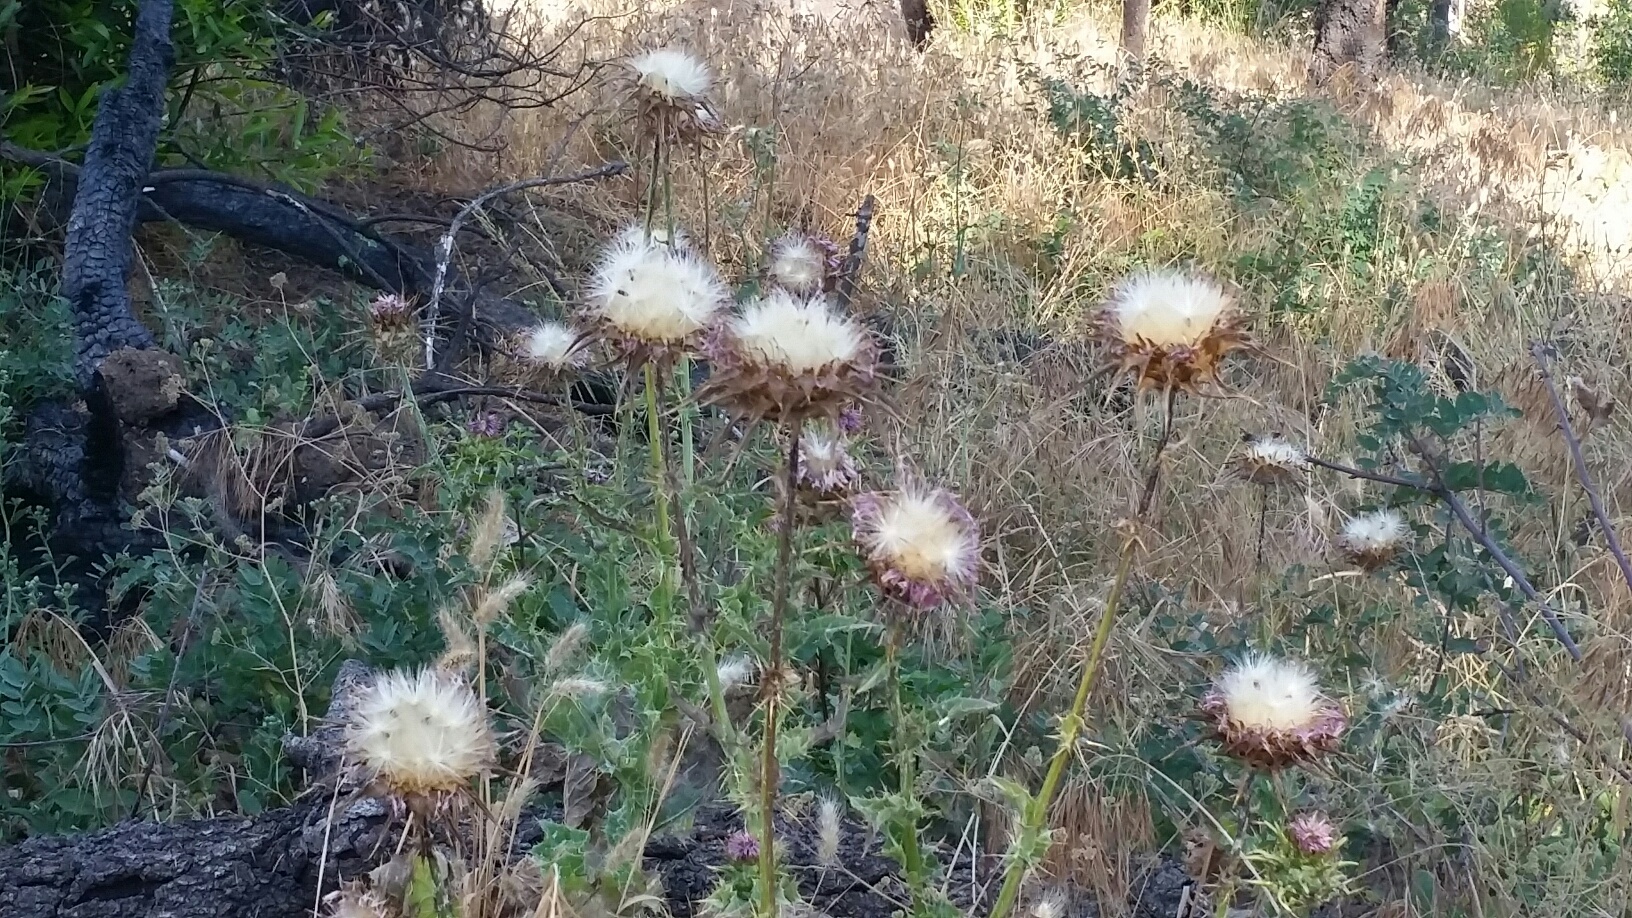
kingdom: Plantae
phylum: Tracheophyta
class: Magnoliopsida
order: Asterales
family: Asteraceae
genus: Silybum
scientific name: Silybum marianum
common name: Milk thistle
